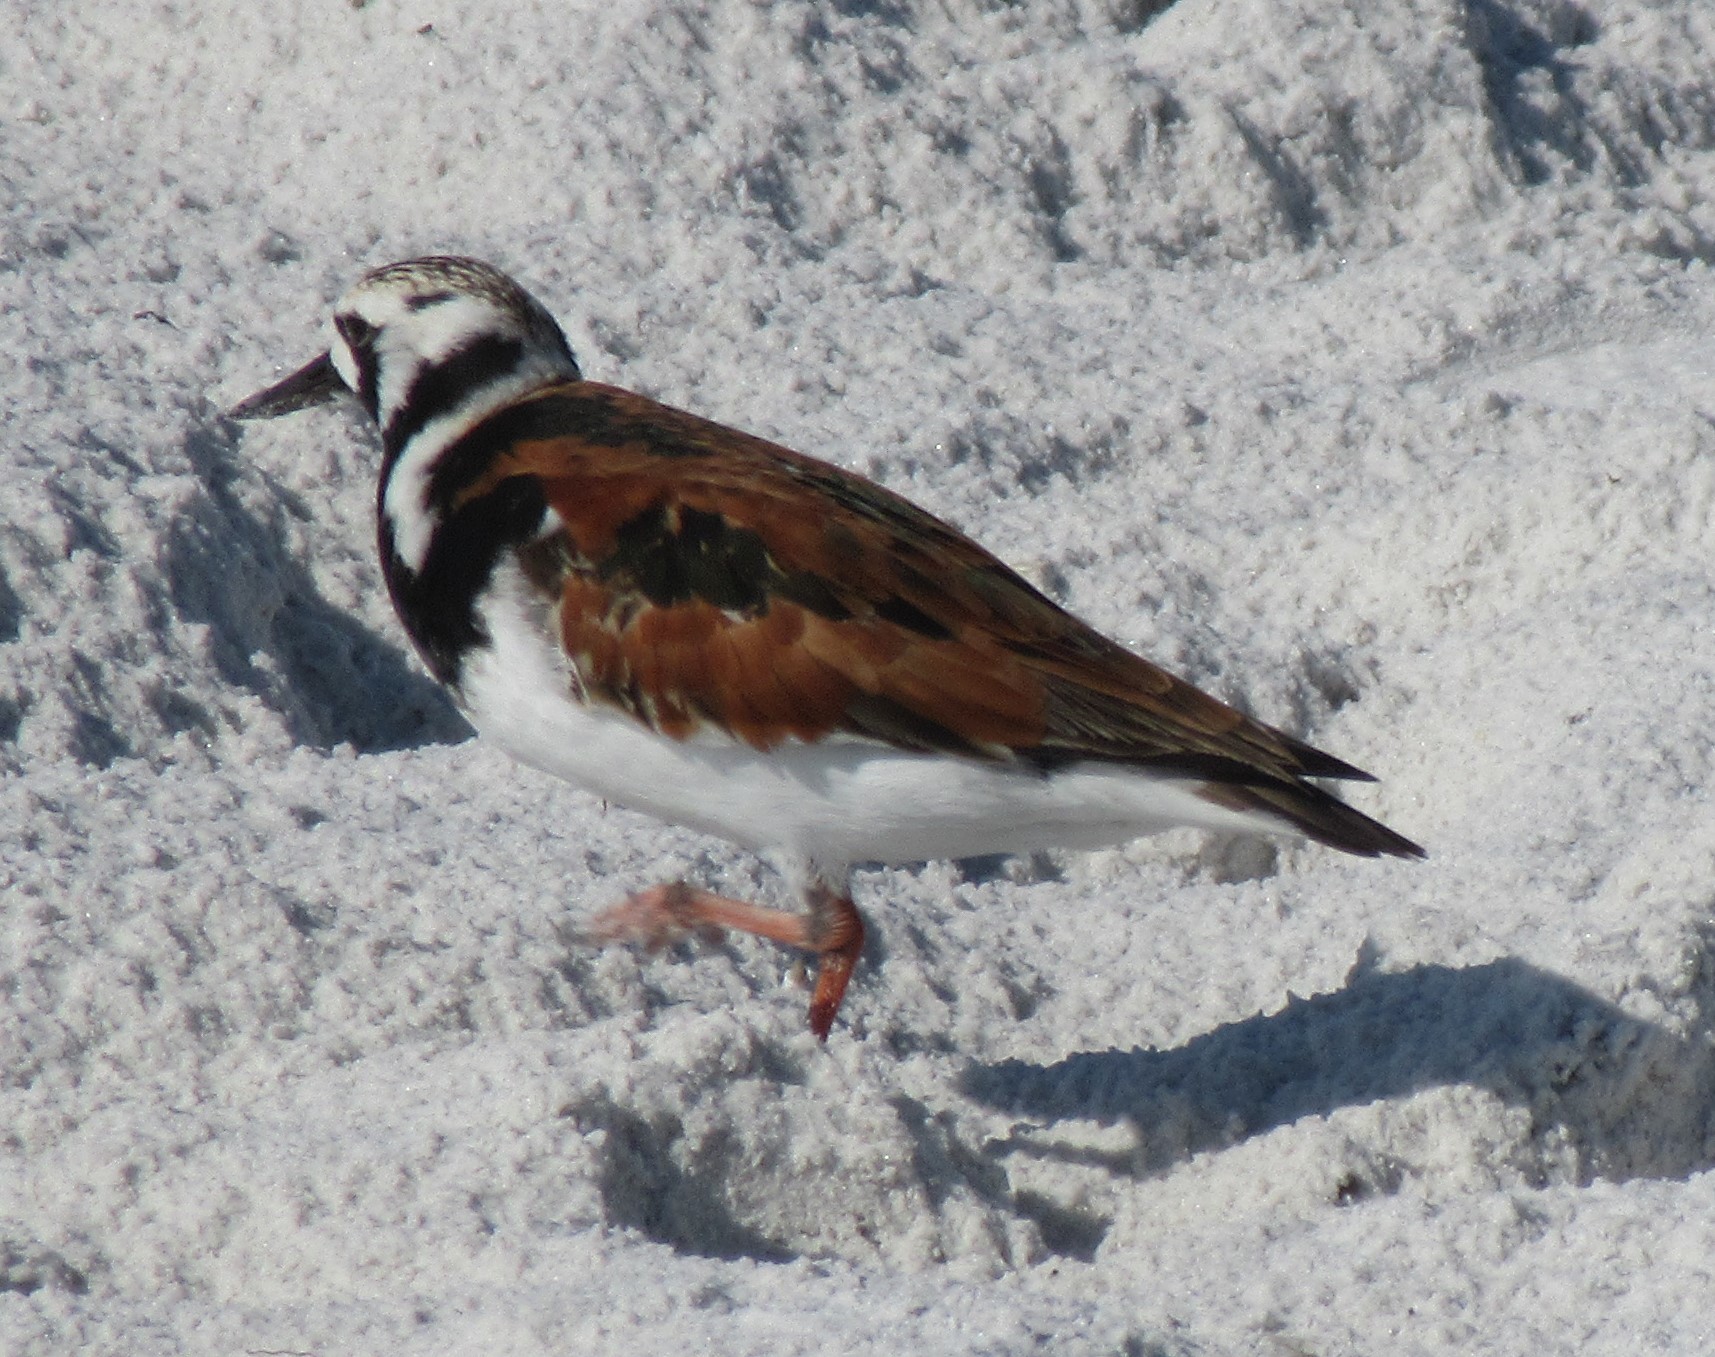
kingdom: Animalia
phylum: Chordata
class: Aves
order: Charadriiformes
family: Scolopacidae
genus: Arenaria
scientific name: Arenaria interpres
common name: Ruddy turnstone
